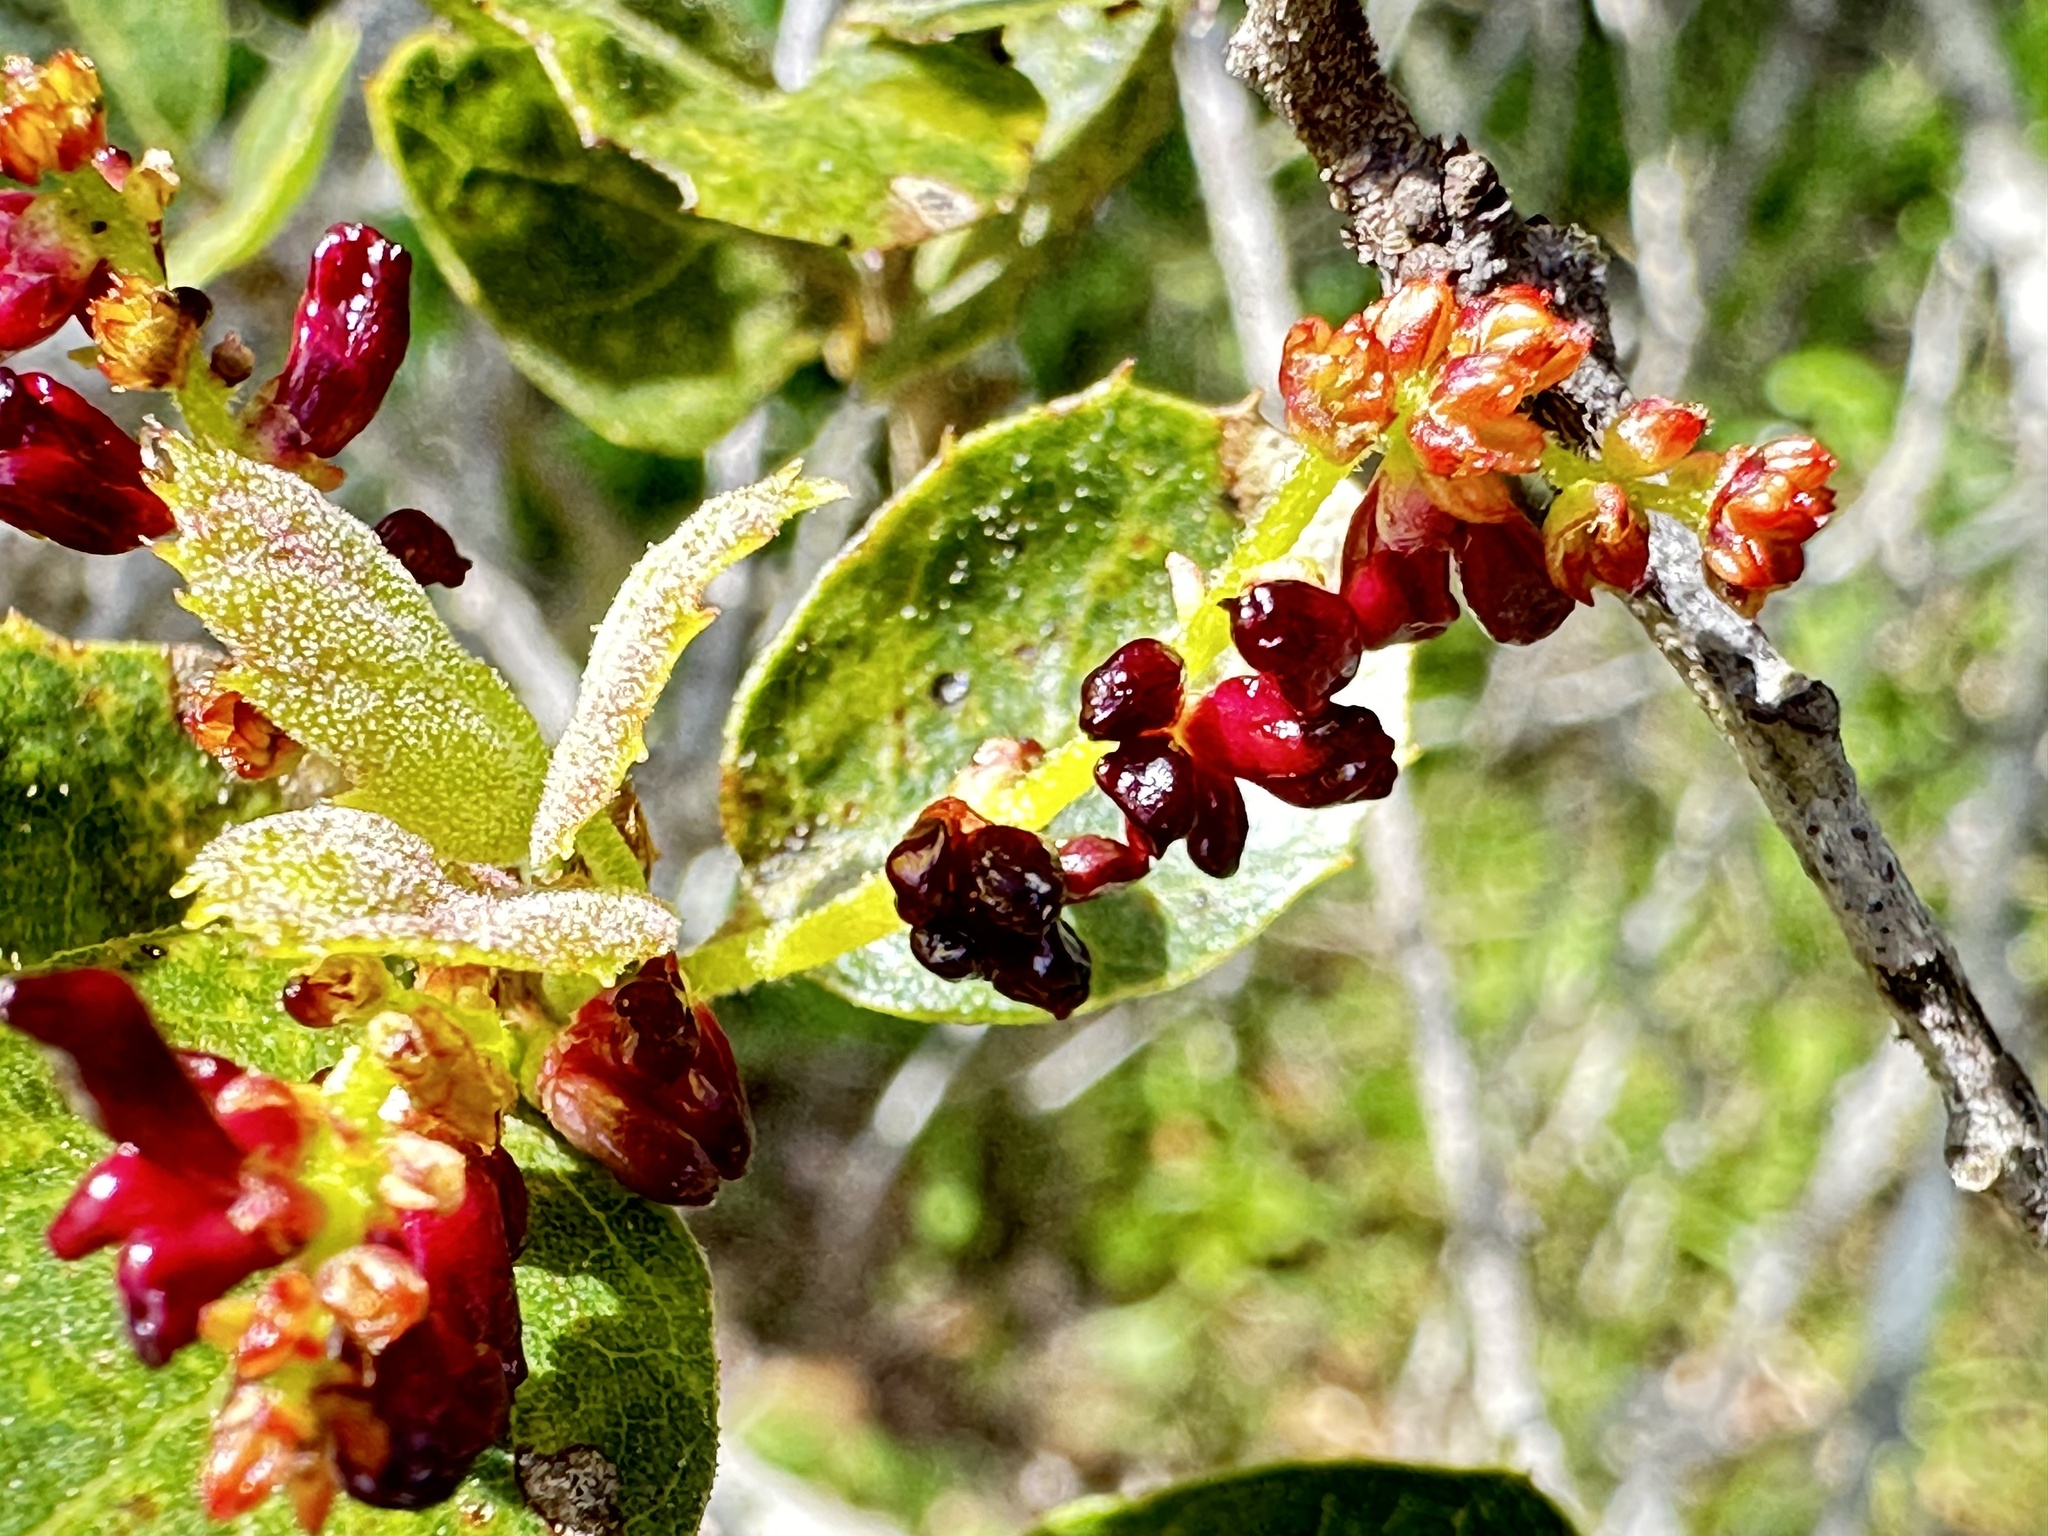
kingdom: Animalia
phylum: Arthropoda
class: Insecta
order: Hymenoptera
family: Cynipidae
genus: Dryocosmus
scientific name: Dryocosmus
